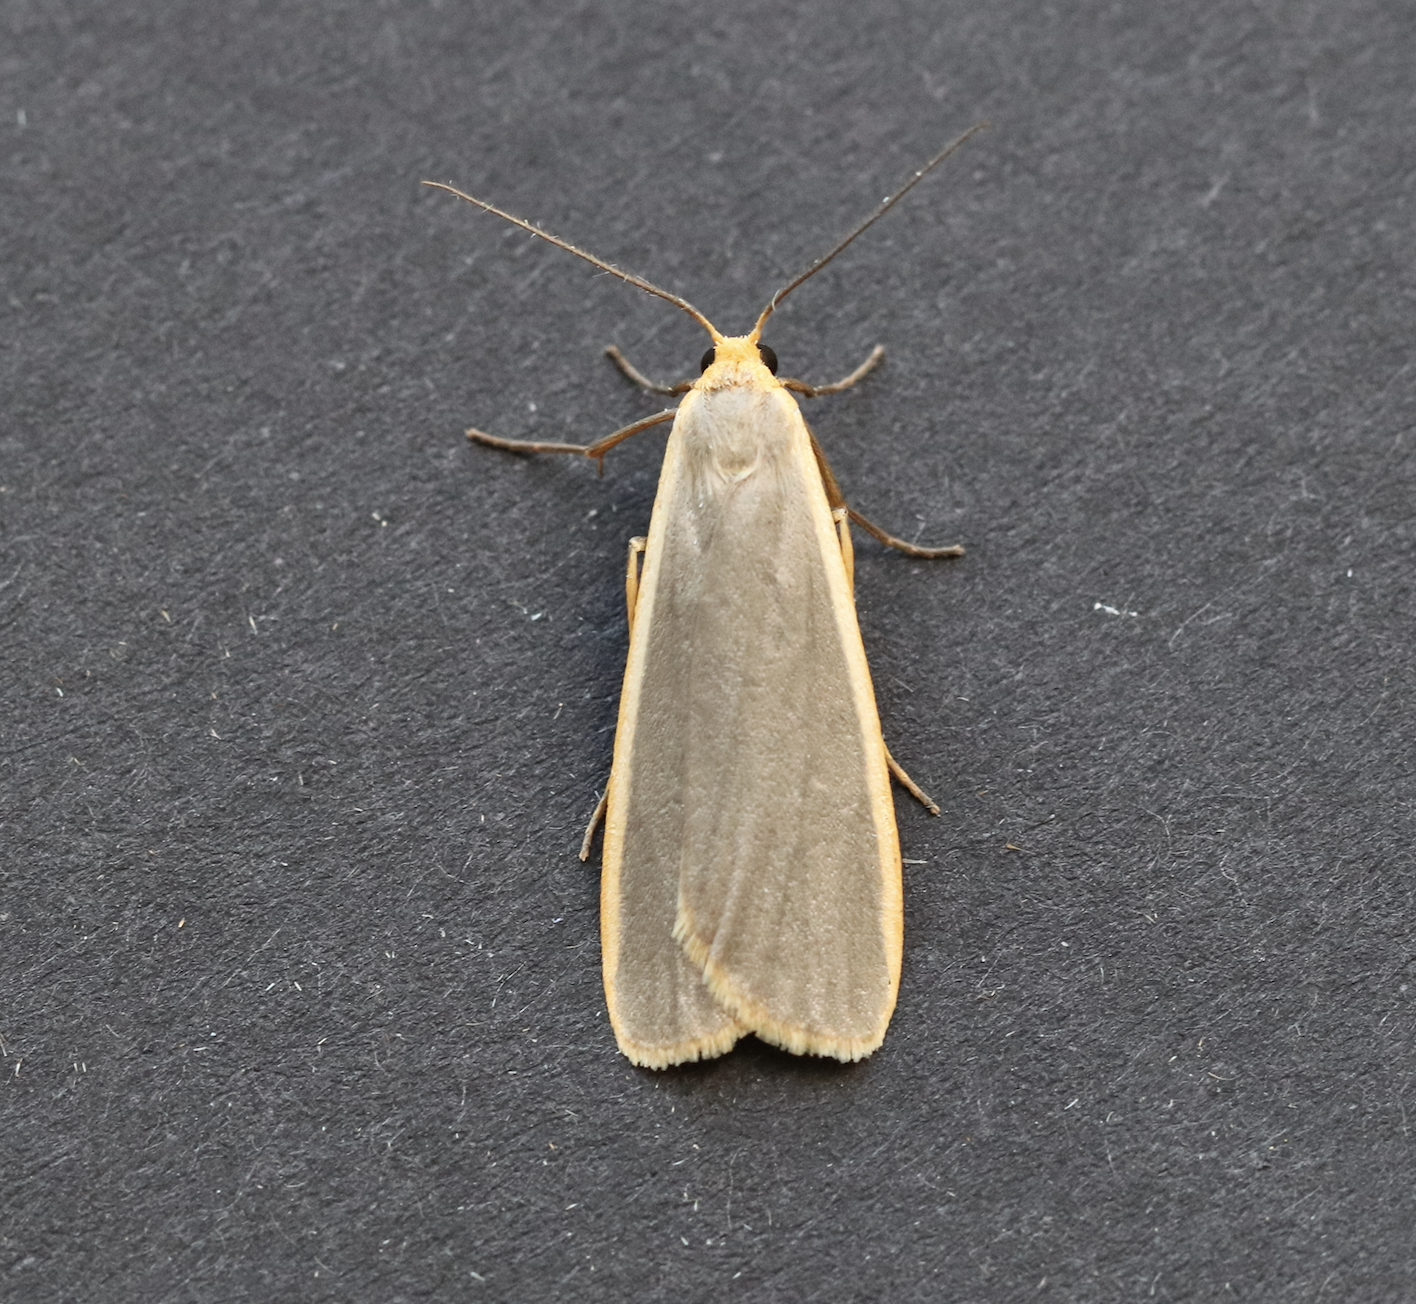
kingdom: Animalia
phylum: Arthropoda
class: Insecta
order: Lepidoptera
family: Erebidae
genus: Nyea
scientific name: Nyea lurideola
